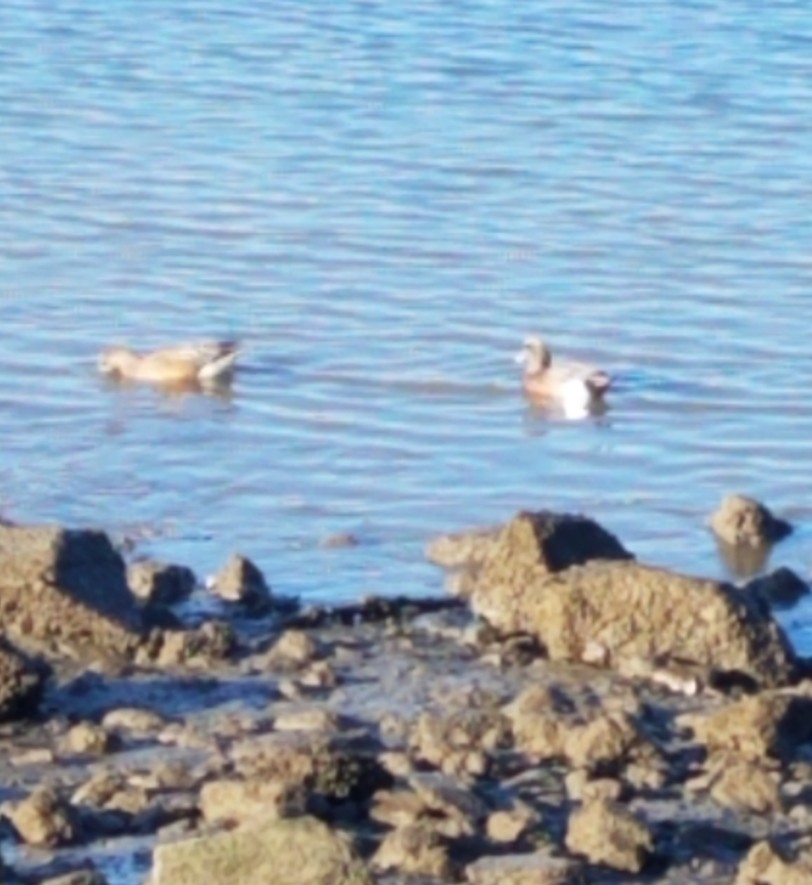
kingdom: Animalia
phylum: Chordata
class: Aves
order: Anseriformes
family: Anatidae
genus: Mareca
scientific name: Mareca americana
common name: American wigeon
